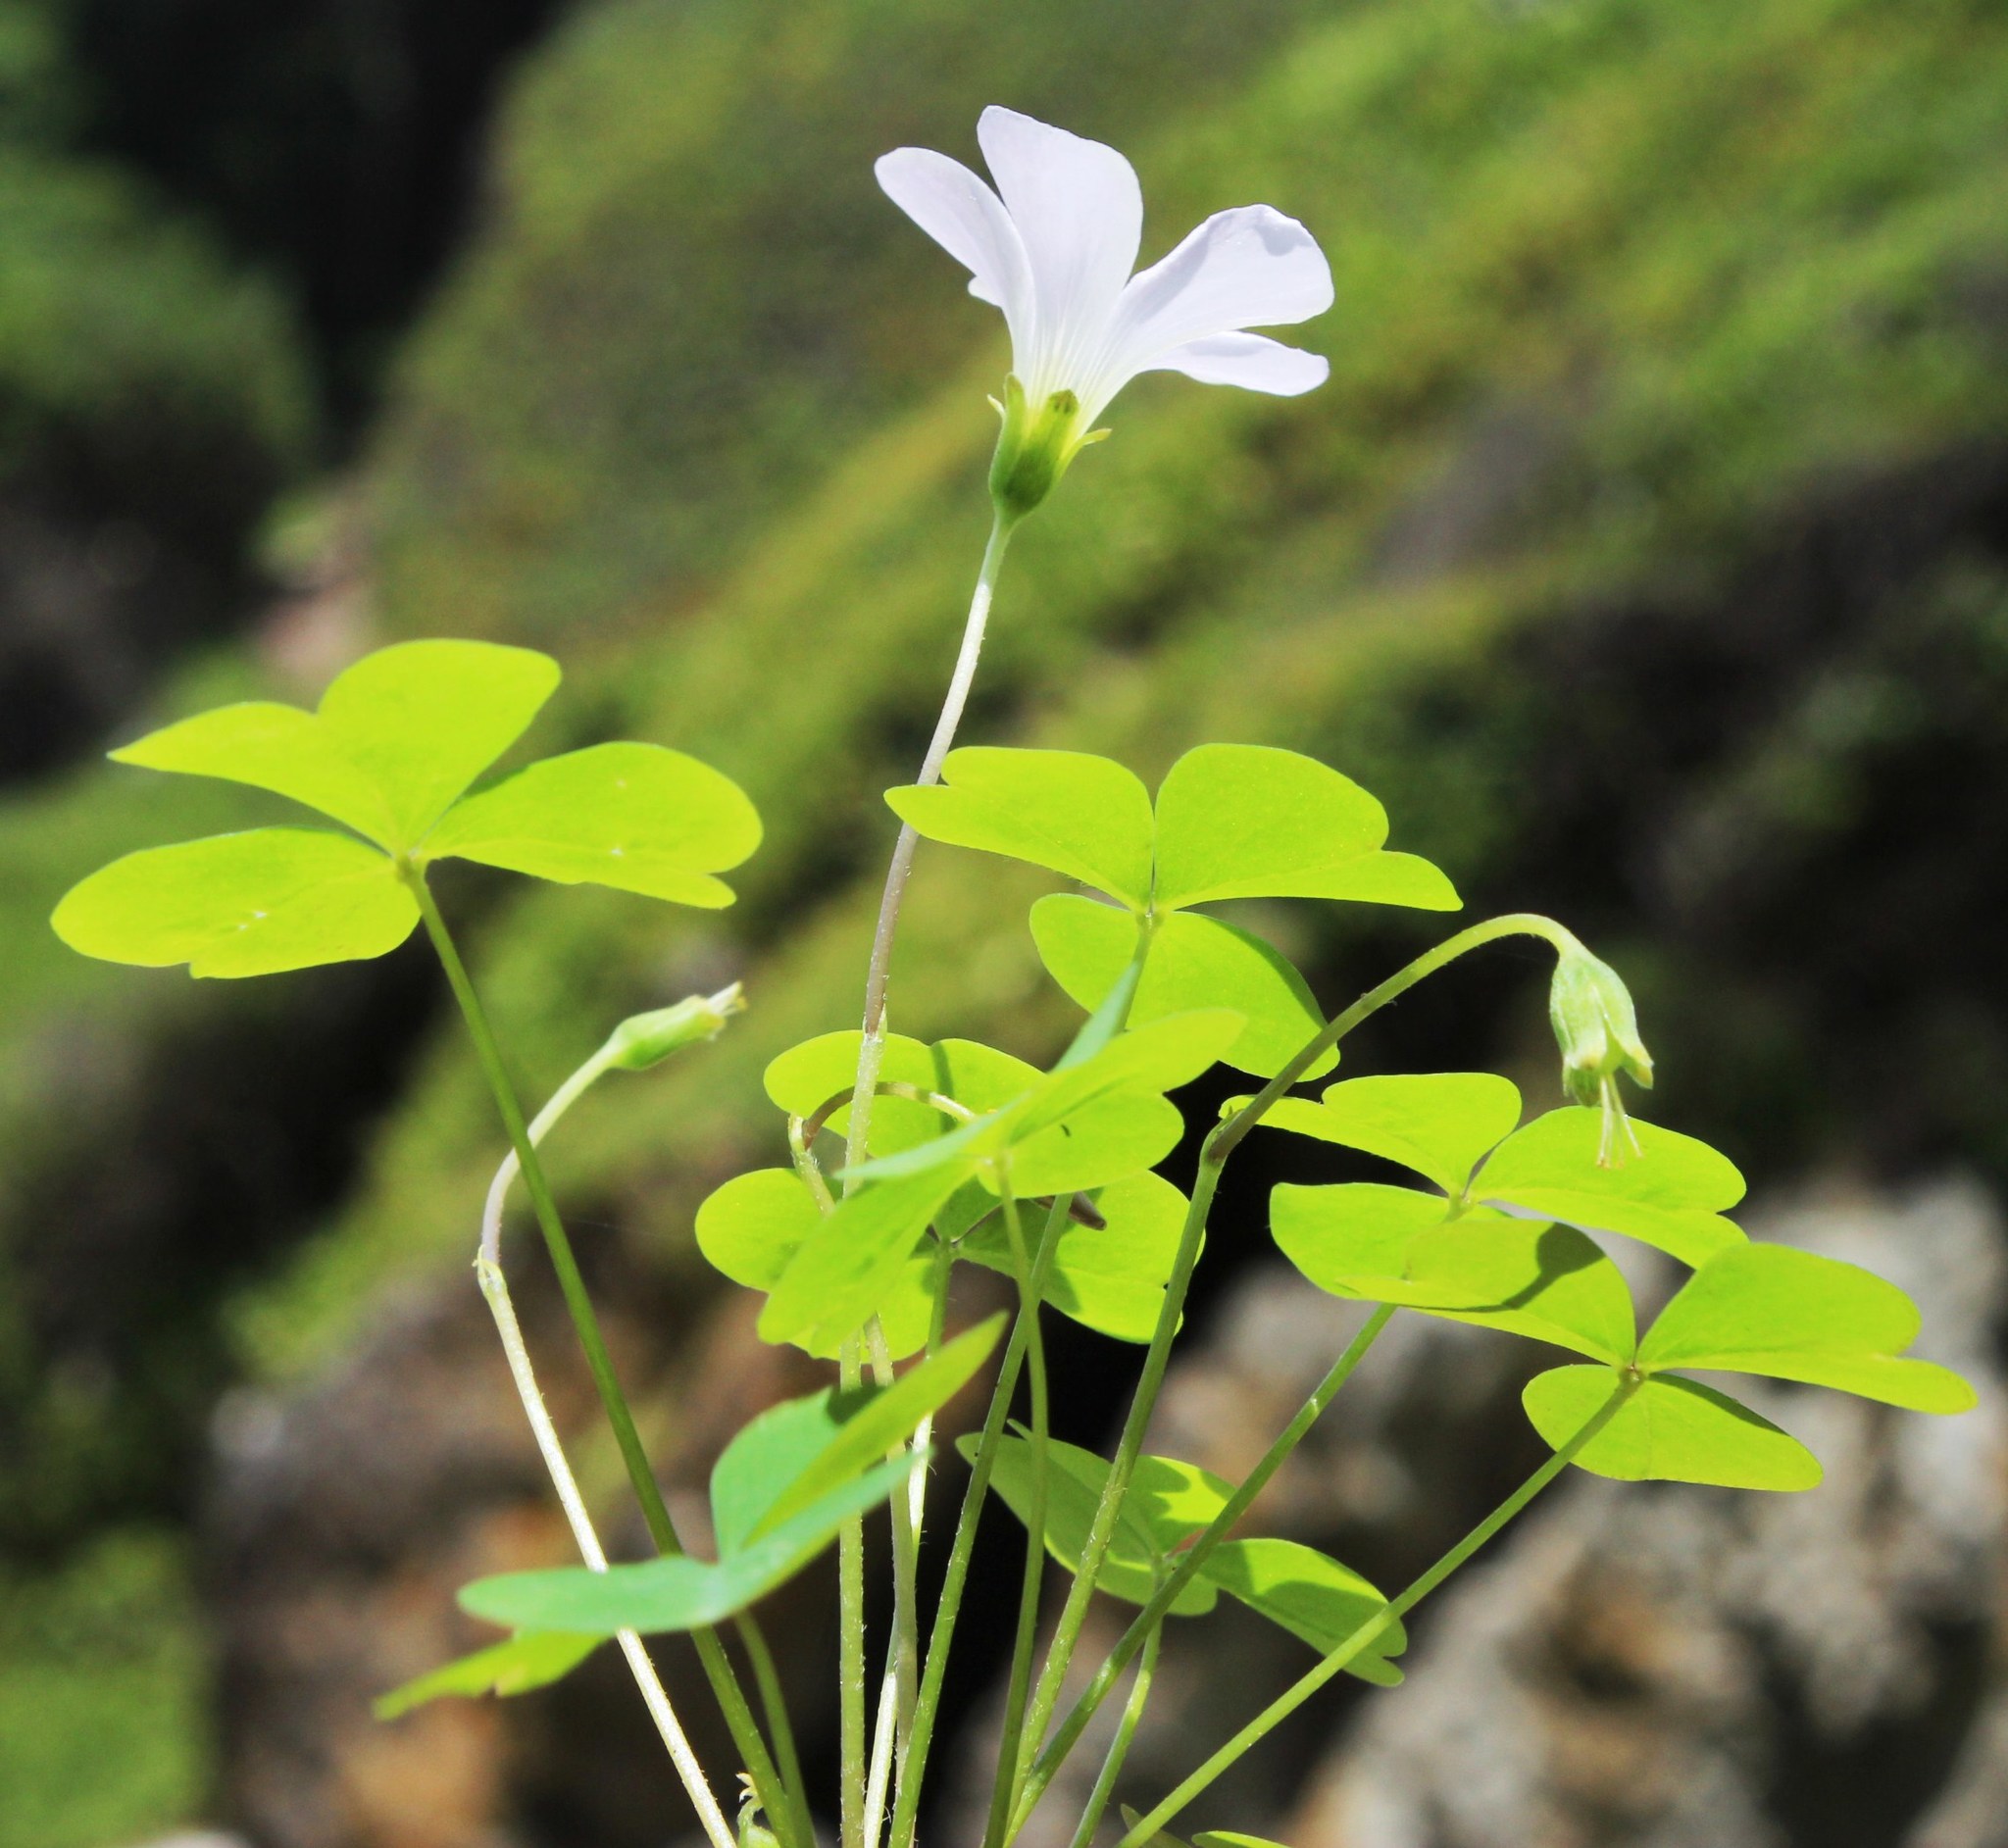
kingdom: Plantae
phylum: Tracheophyta
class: Magnoliopsida
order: Oxalidales
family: Oxalidaceae
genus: Oxalis
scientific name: Oxalis incarnata
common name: Pale pink-sorrel
